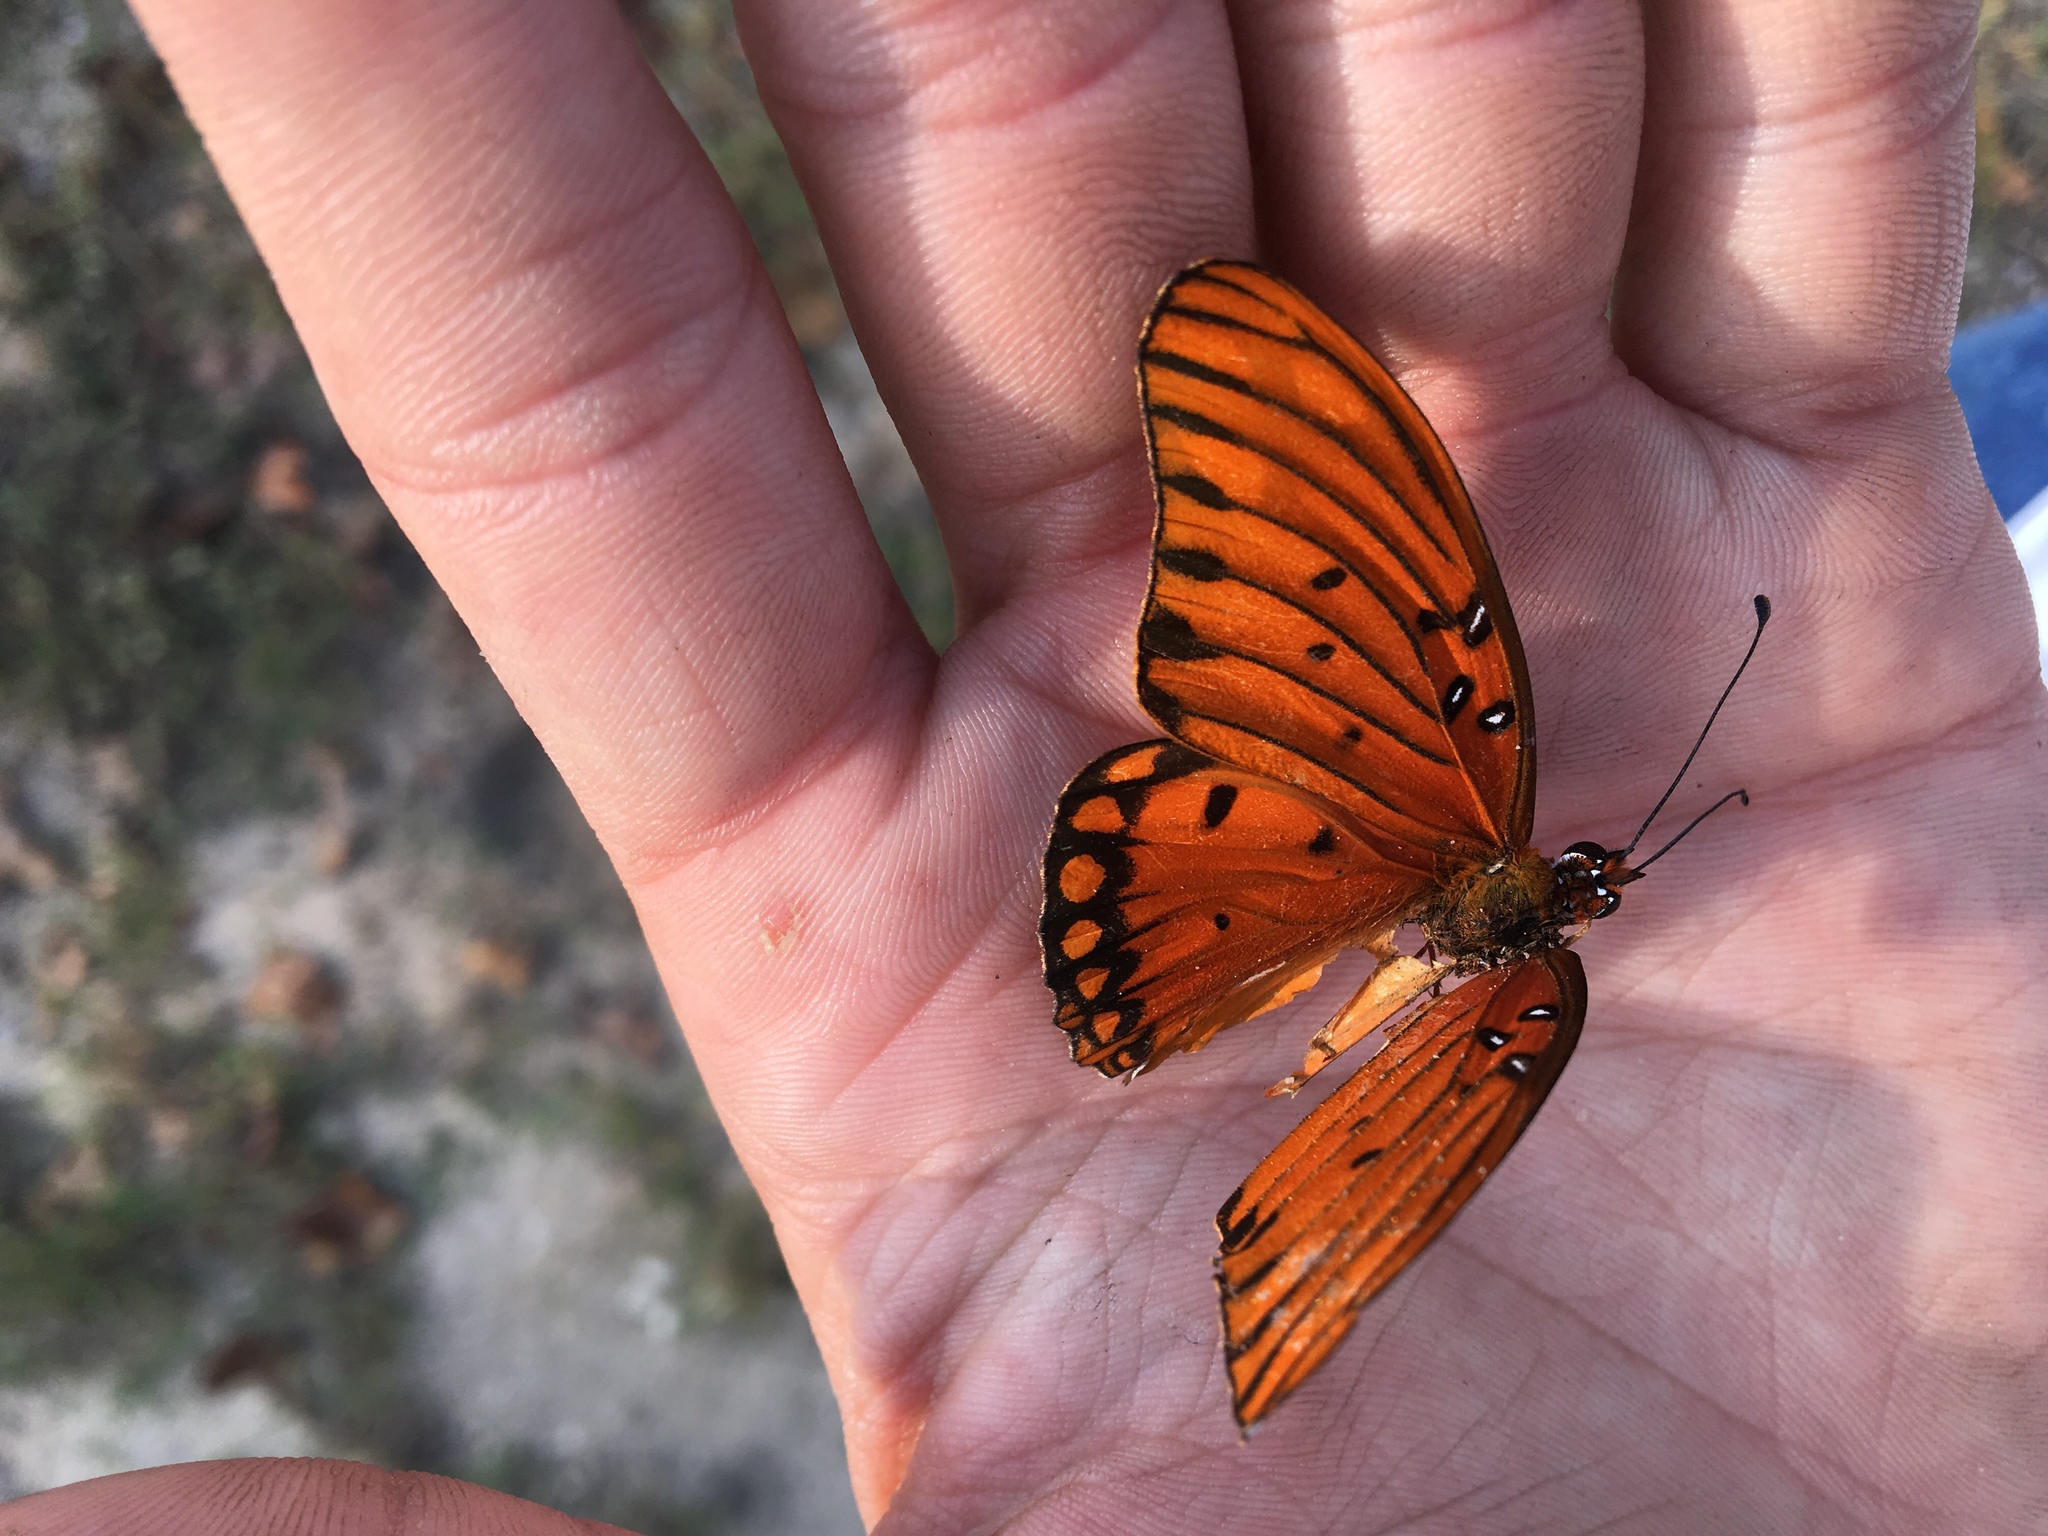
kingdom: Animalia
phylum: Arthropoda
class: Insecta
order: Lepidoptera
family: Nymphalidae
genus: Dione
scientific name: Dione vanillae
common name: Gulf fritillary
